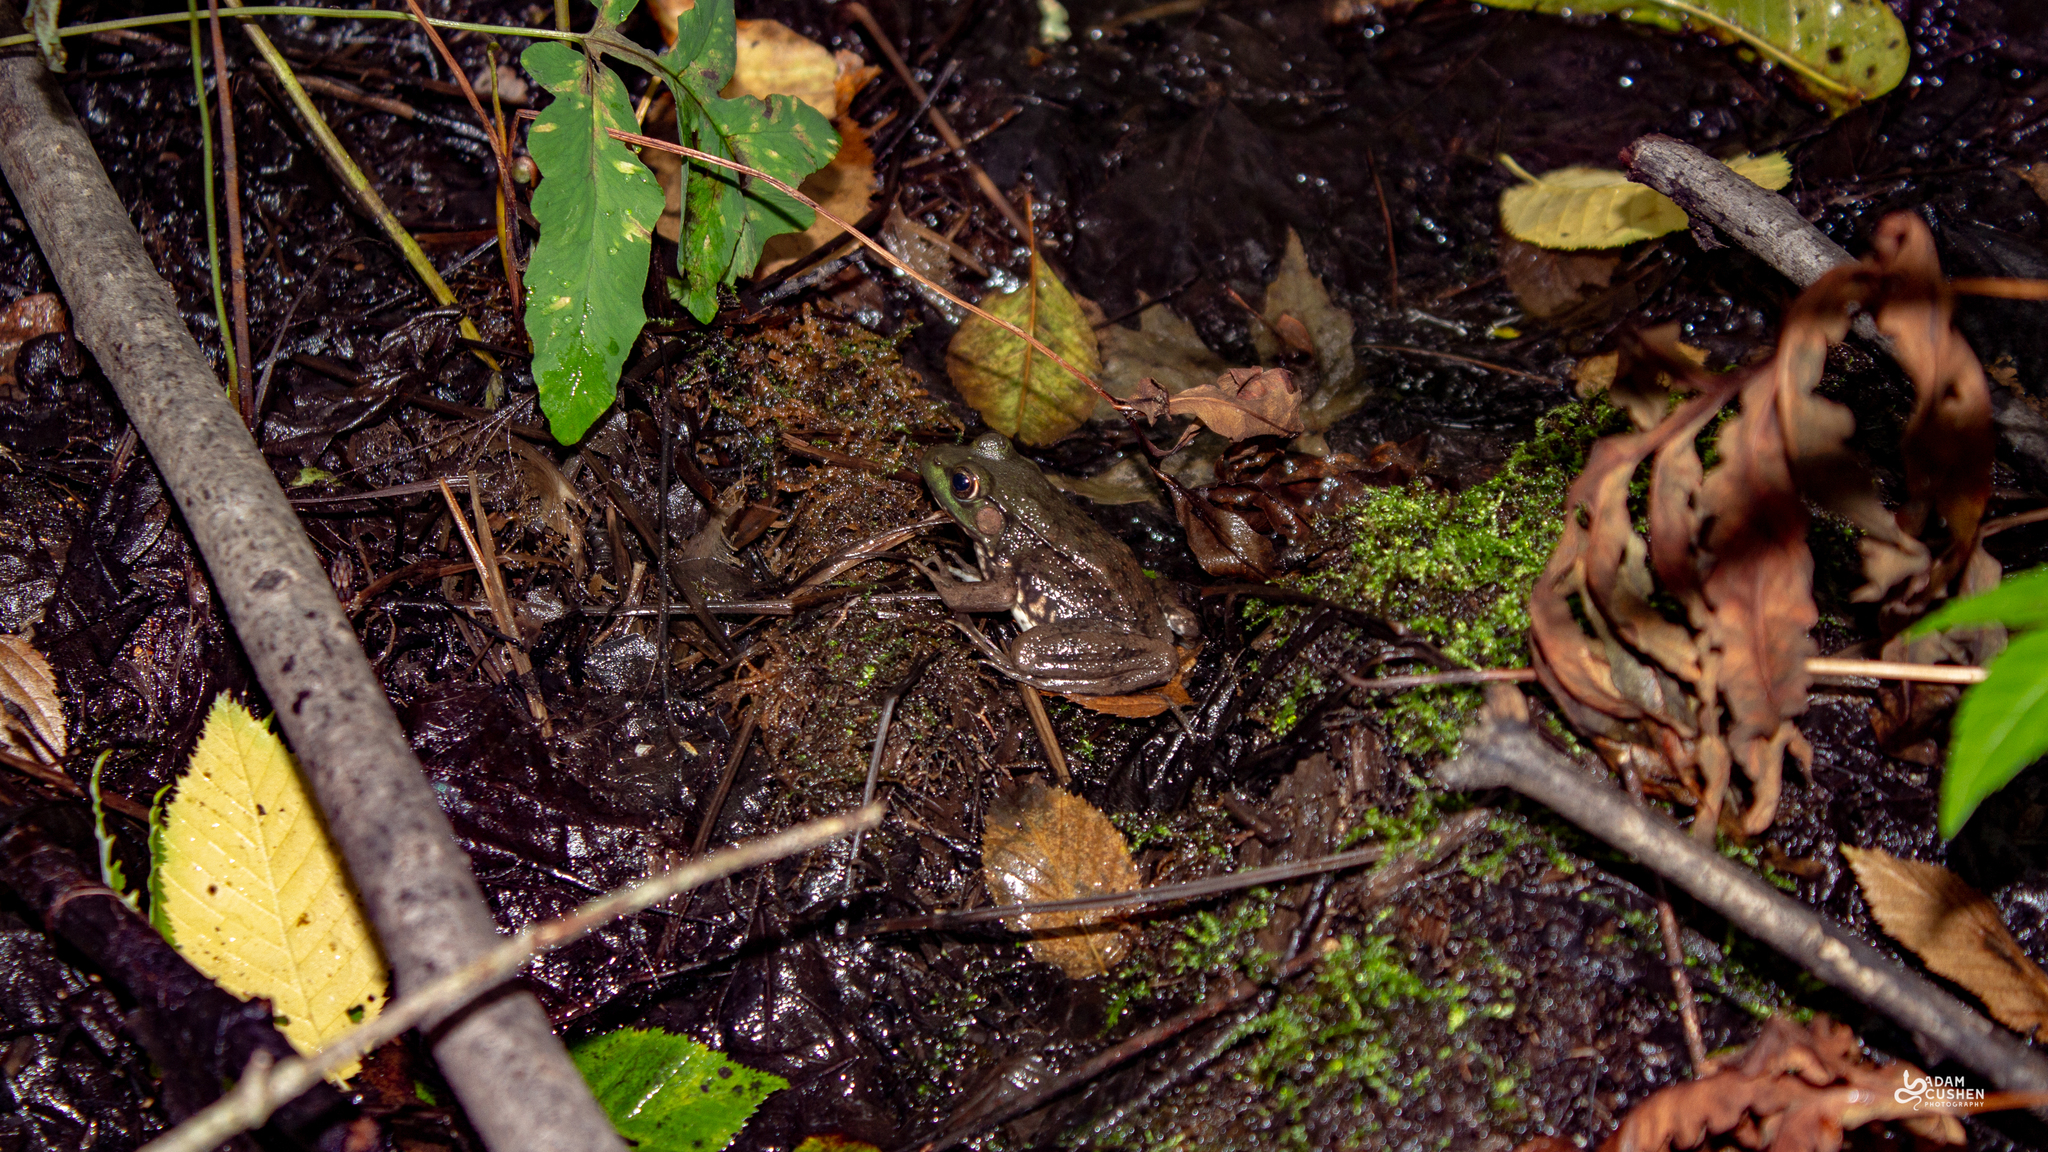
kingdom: Animalia
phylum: Chordata
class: Amphibia
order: Anura
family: Ranidae
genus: Lithobates
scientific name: Lithobates clamitans
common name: Green frog
